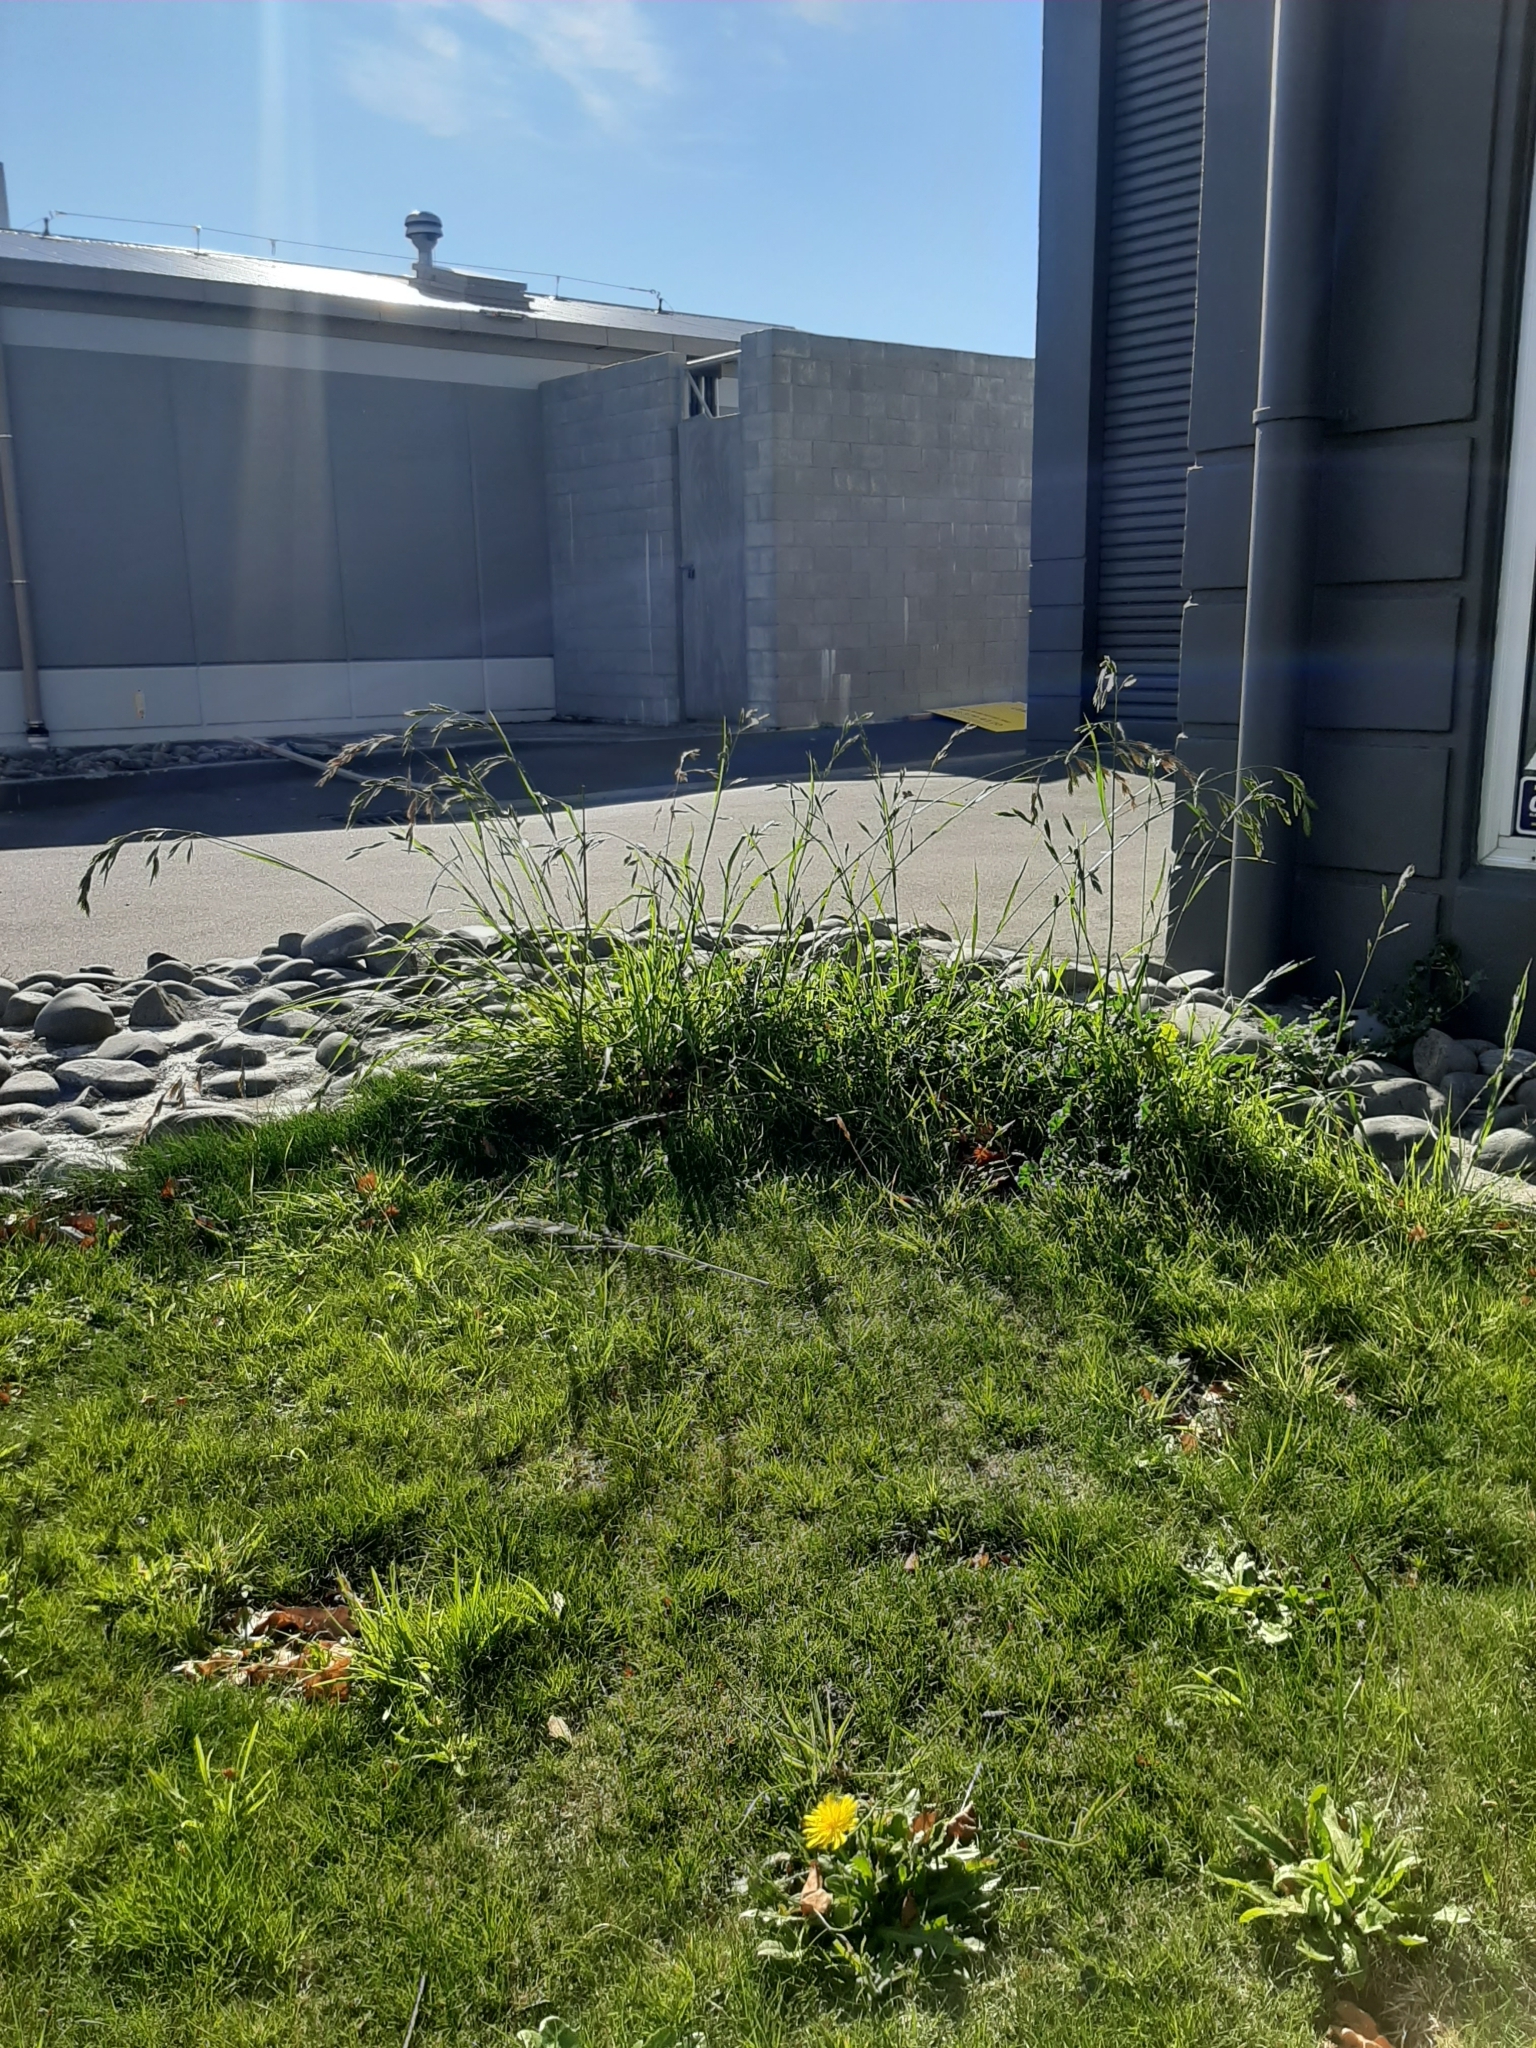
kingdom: Plantae
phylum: Tracheophyta
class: Liliopsida
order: Poales
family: Poaceae
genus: Bromus
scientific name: Bromus catharticus
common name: Rescuegrass
